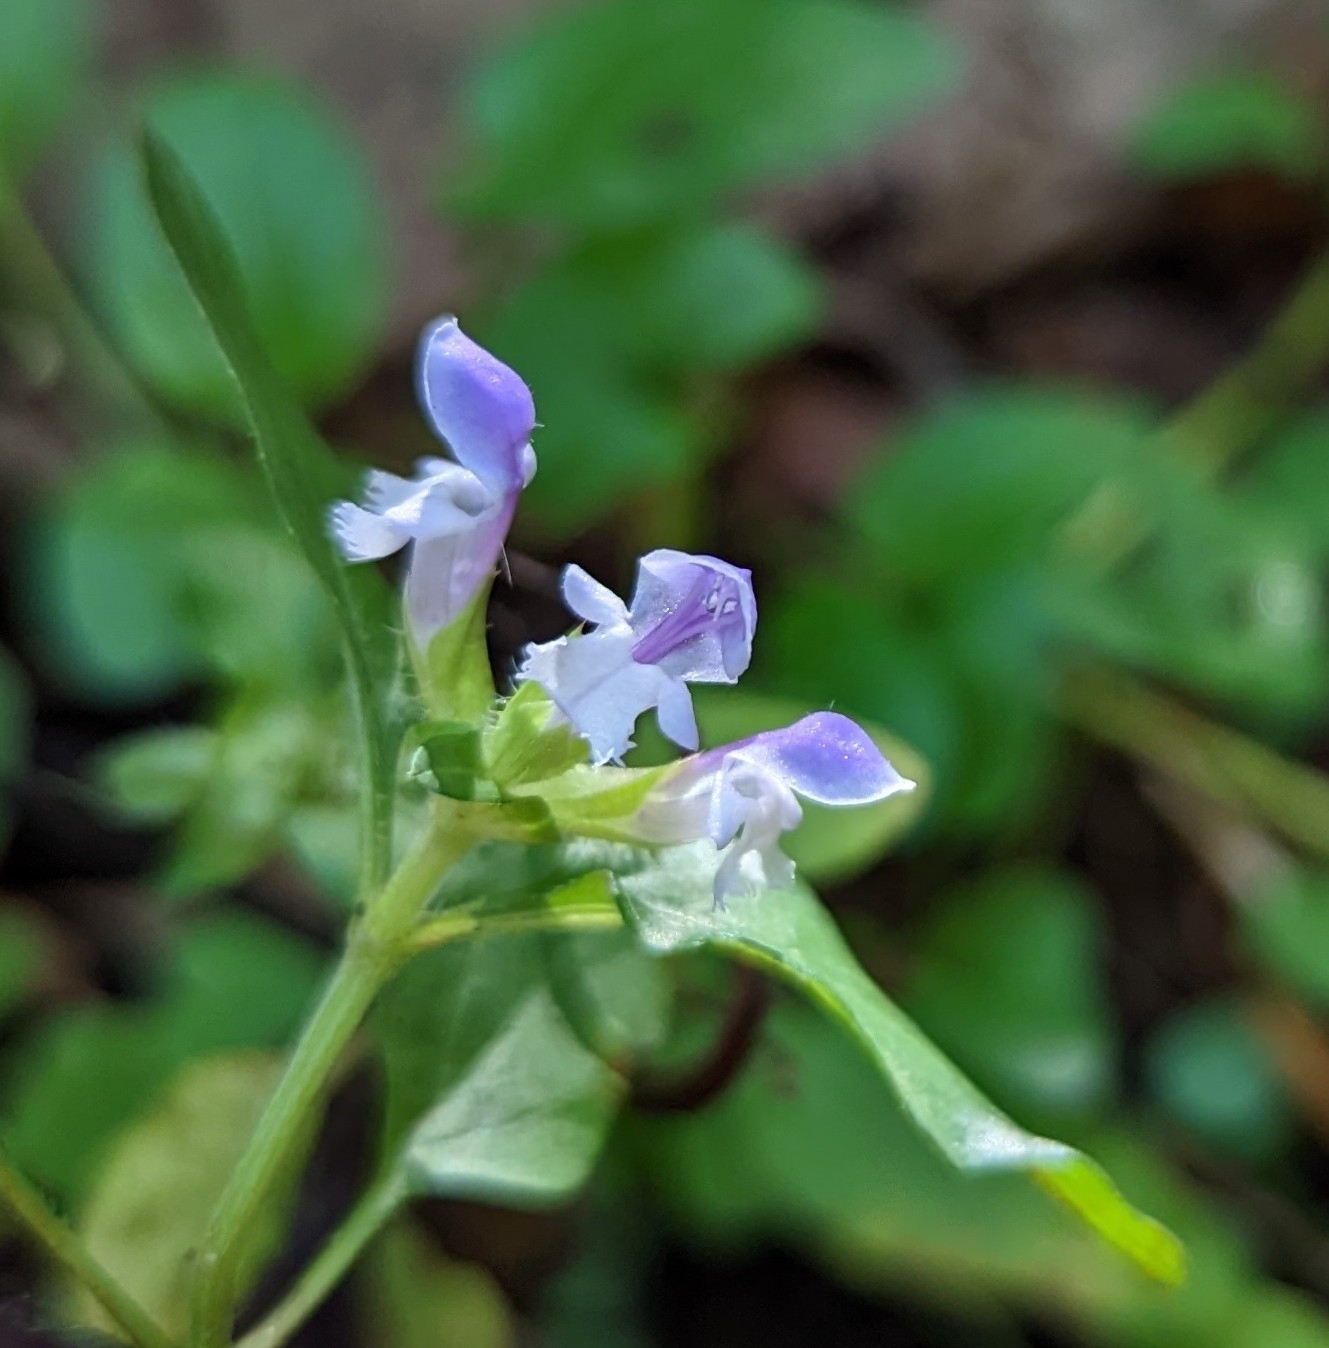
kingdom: Plantae
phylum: Tracheophyta
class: Magnoliopsida
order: Lamiales
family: Lamiaceae
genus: Prunella
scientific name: Prunella vulgaris
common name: Heal-all
